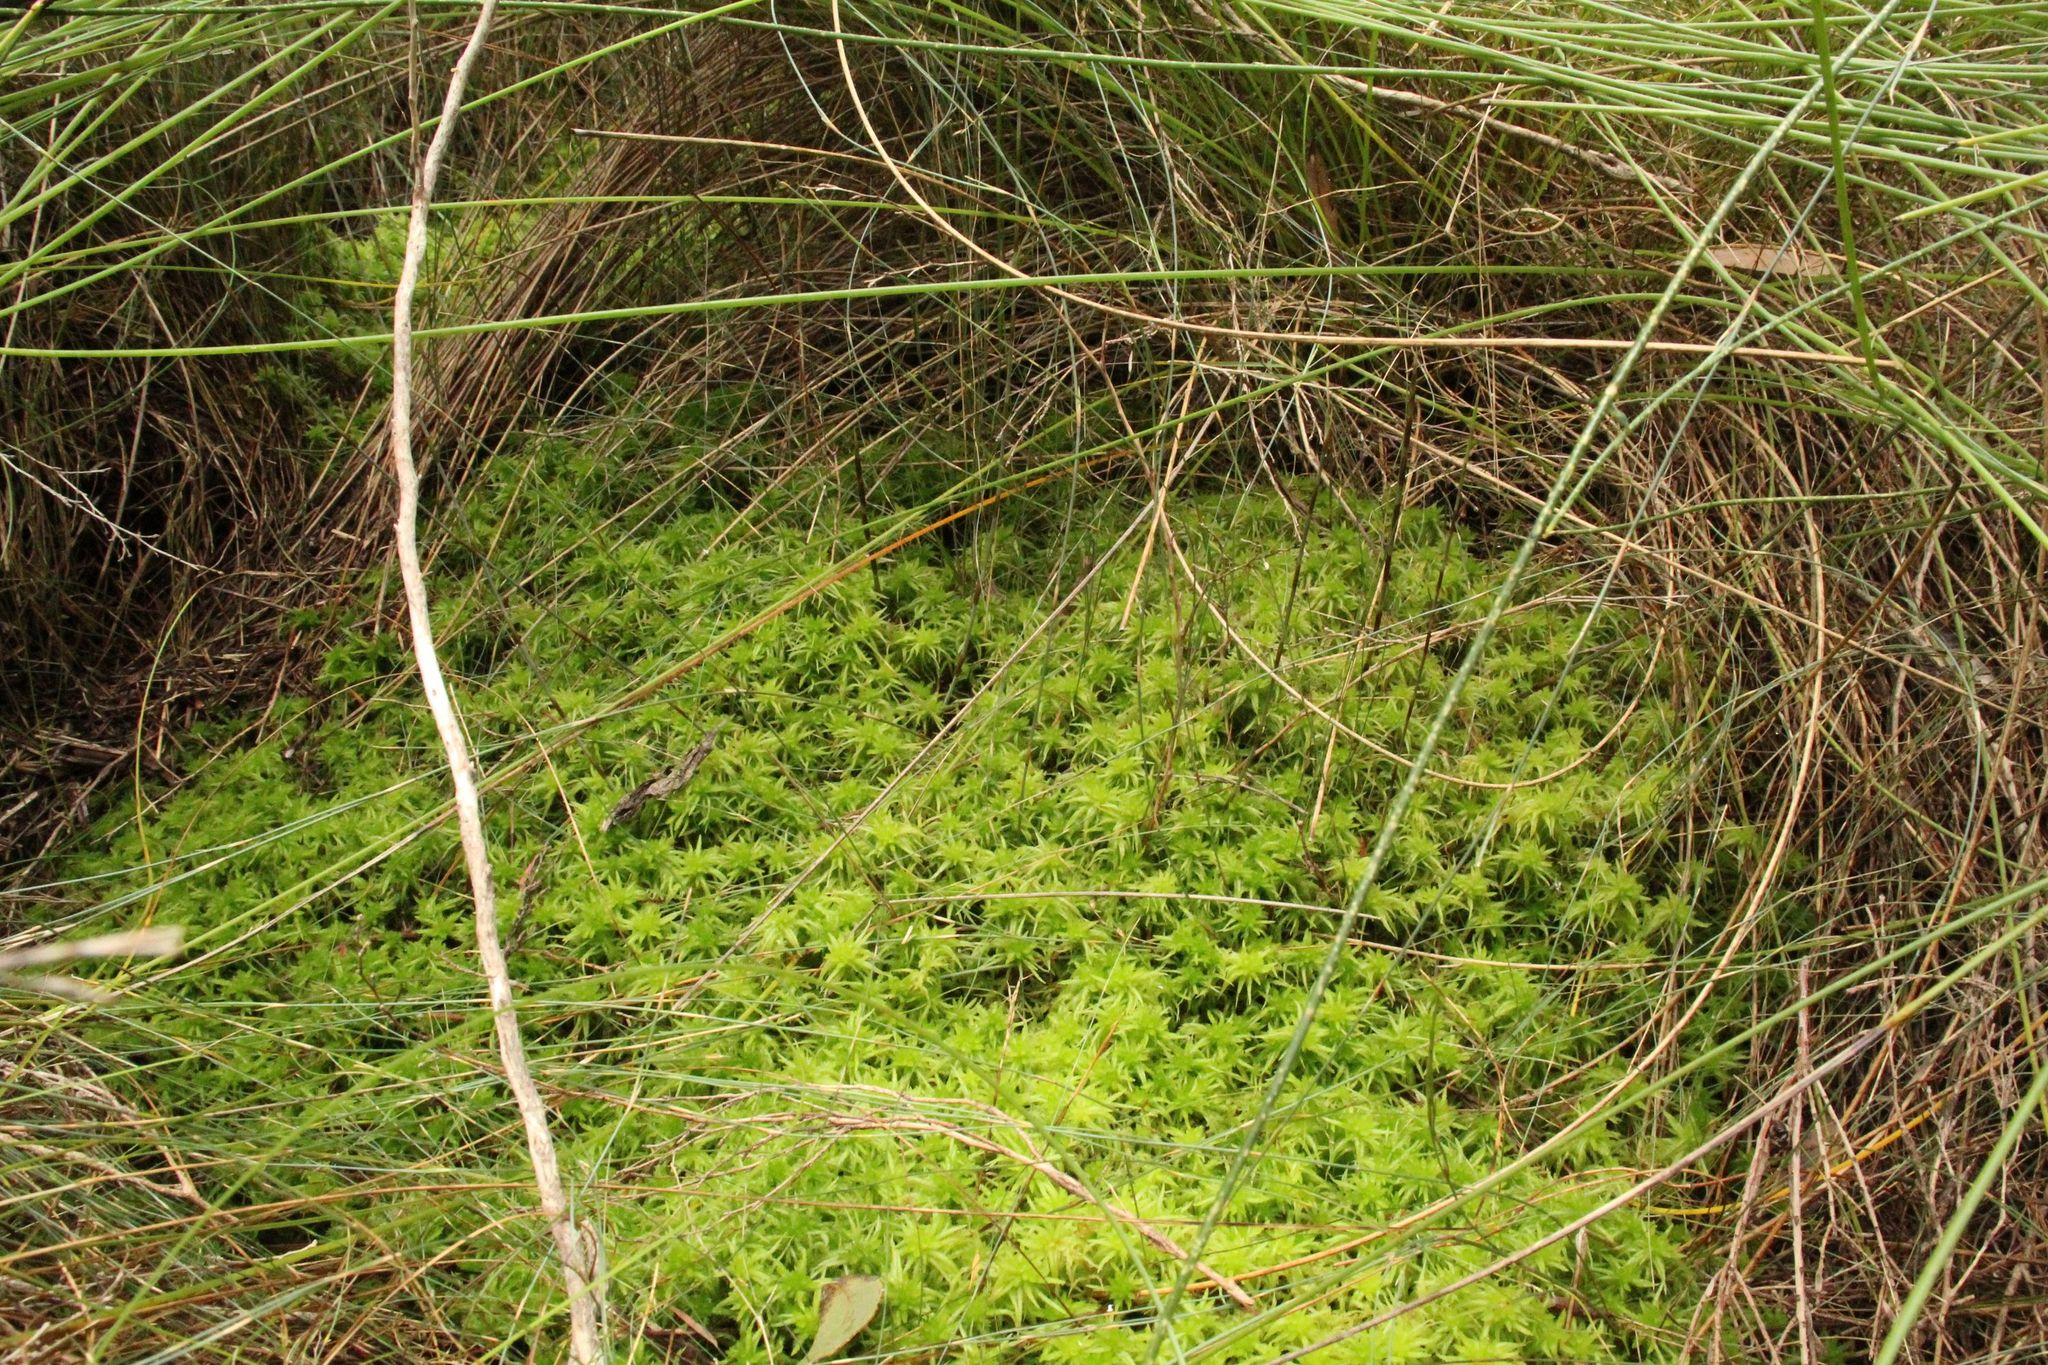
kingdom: Plantae
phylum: Bryophyta
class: Sphagnopsida
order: Sphagnales
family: Sphagnaceae
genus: Sphagnum
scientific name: Sphagnum novozelandicum
